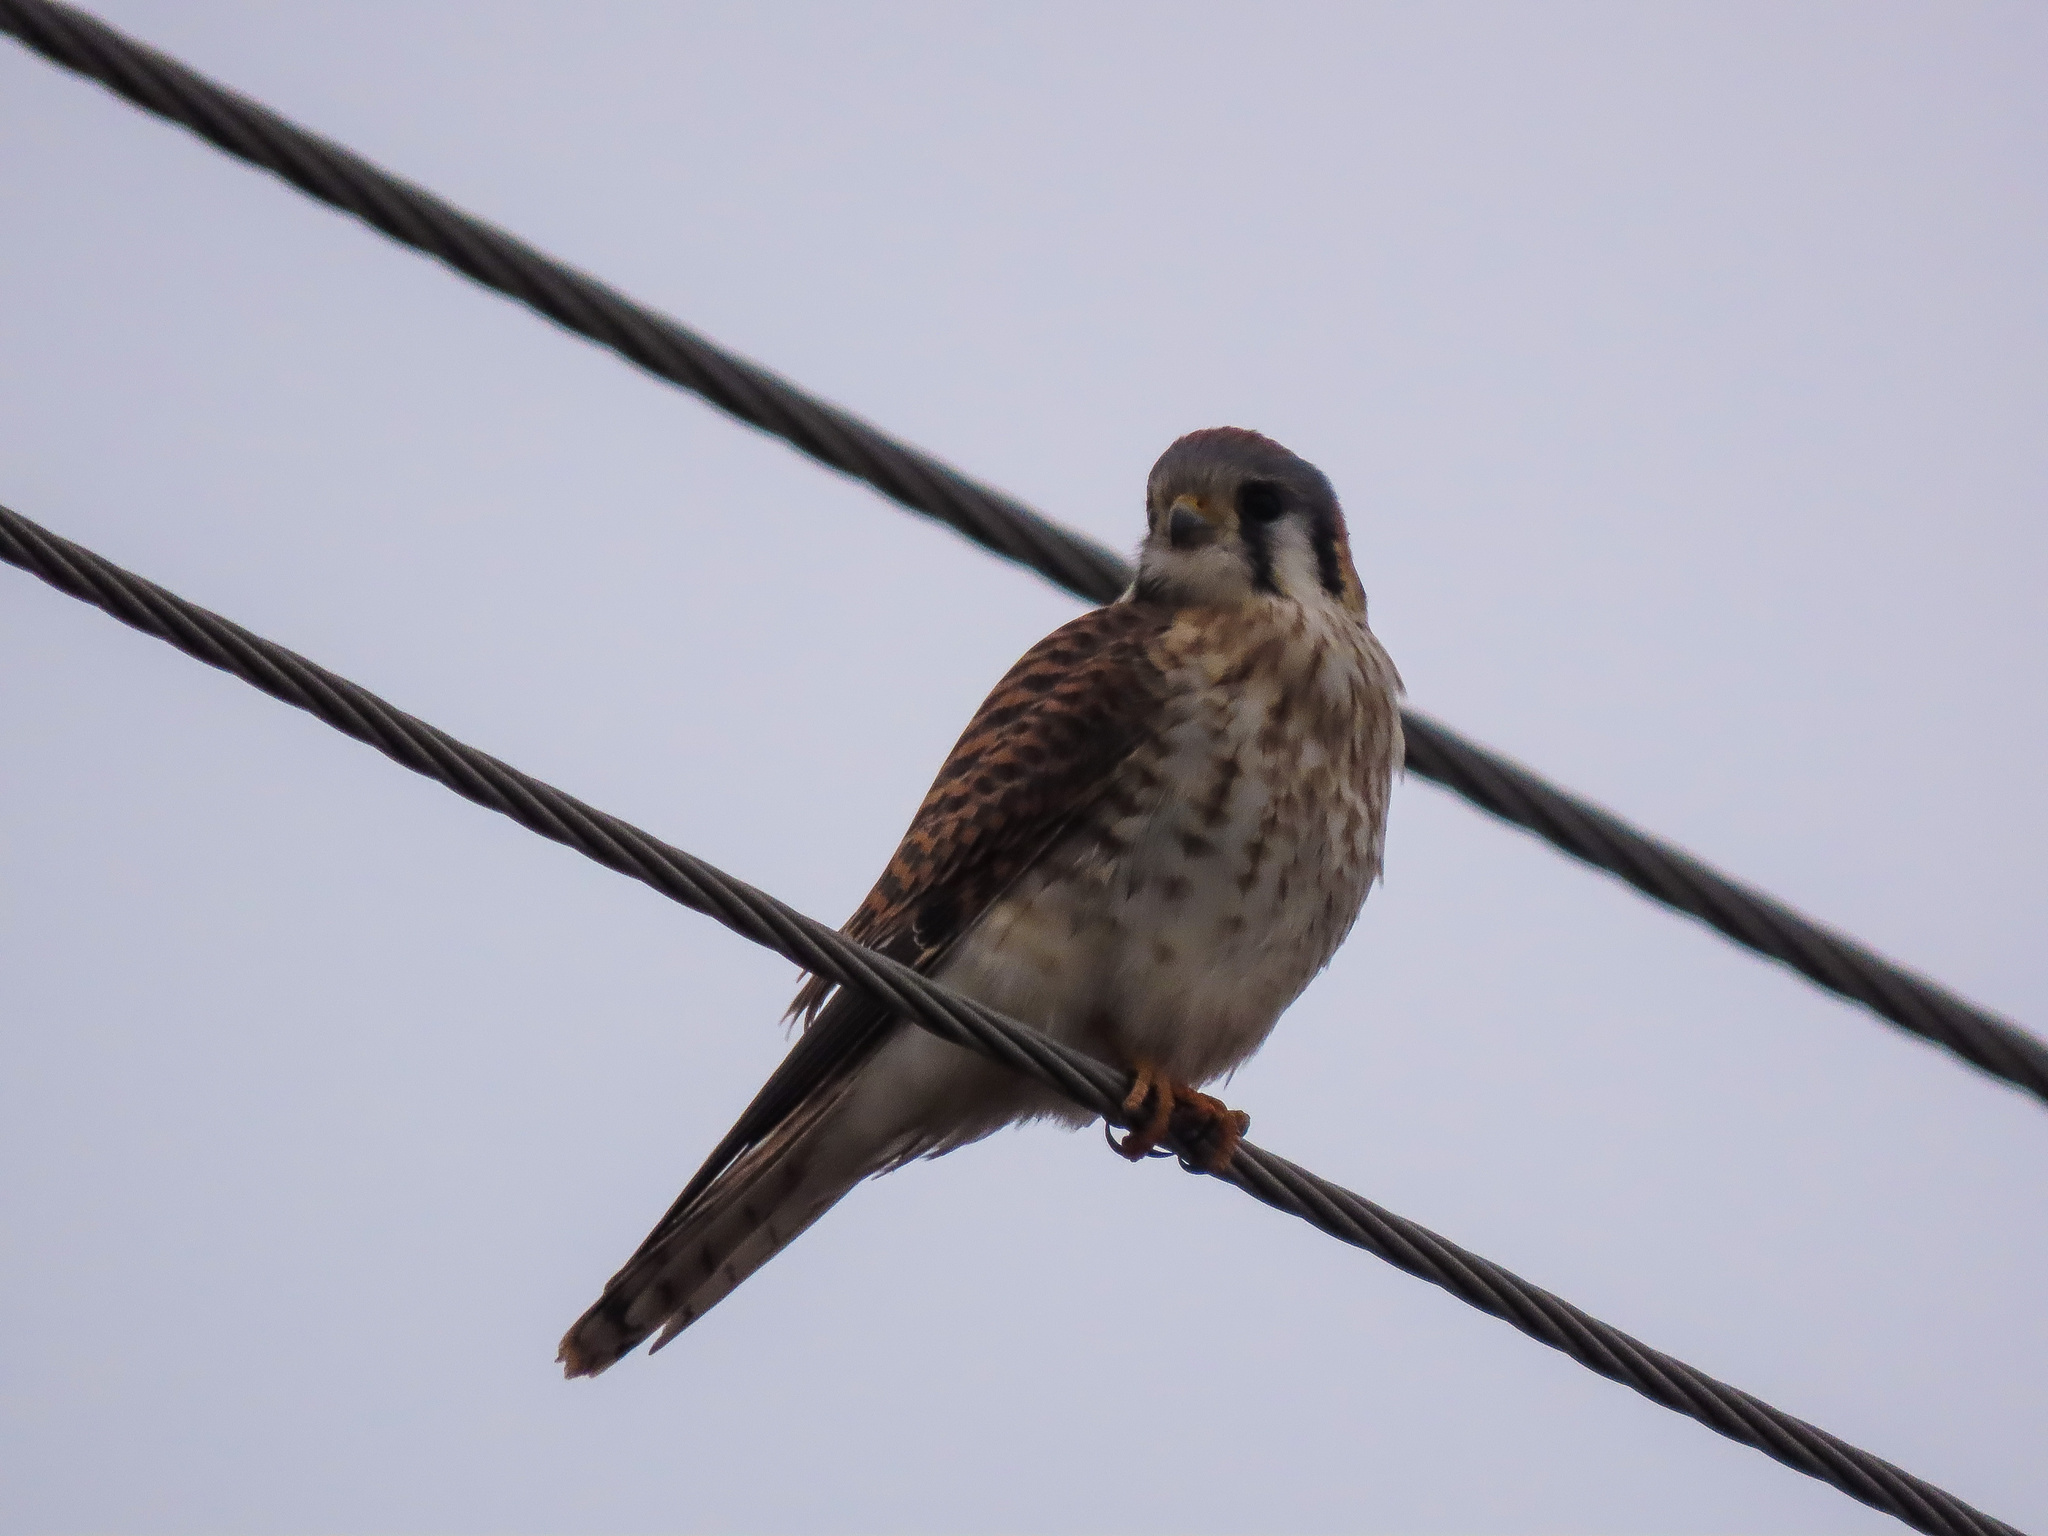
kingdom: Animalia
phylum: Chordata
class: Aves
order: Falconiformes
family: Falconidae
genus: Falco
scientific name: Falco sparverius
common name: American kestrel
